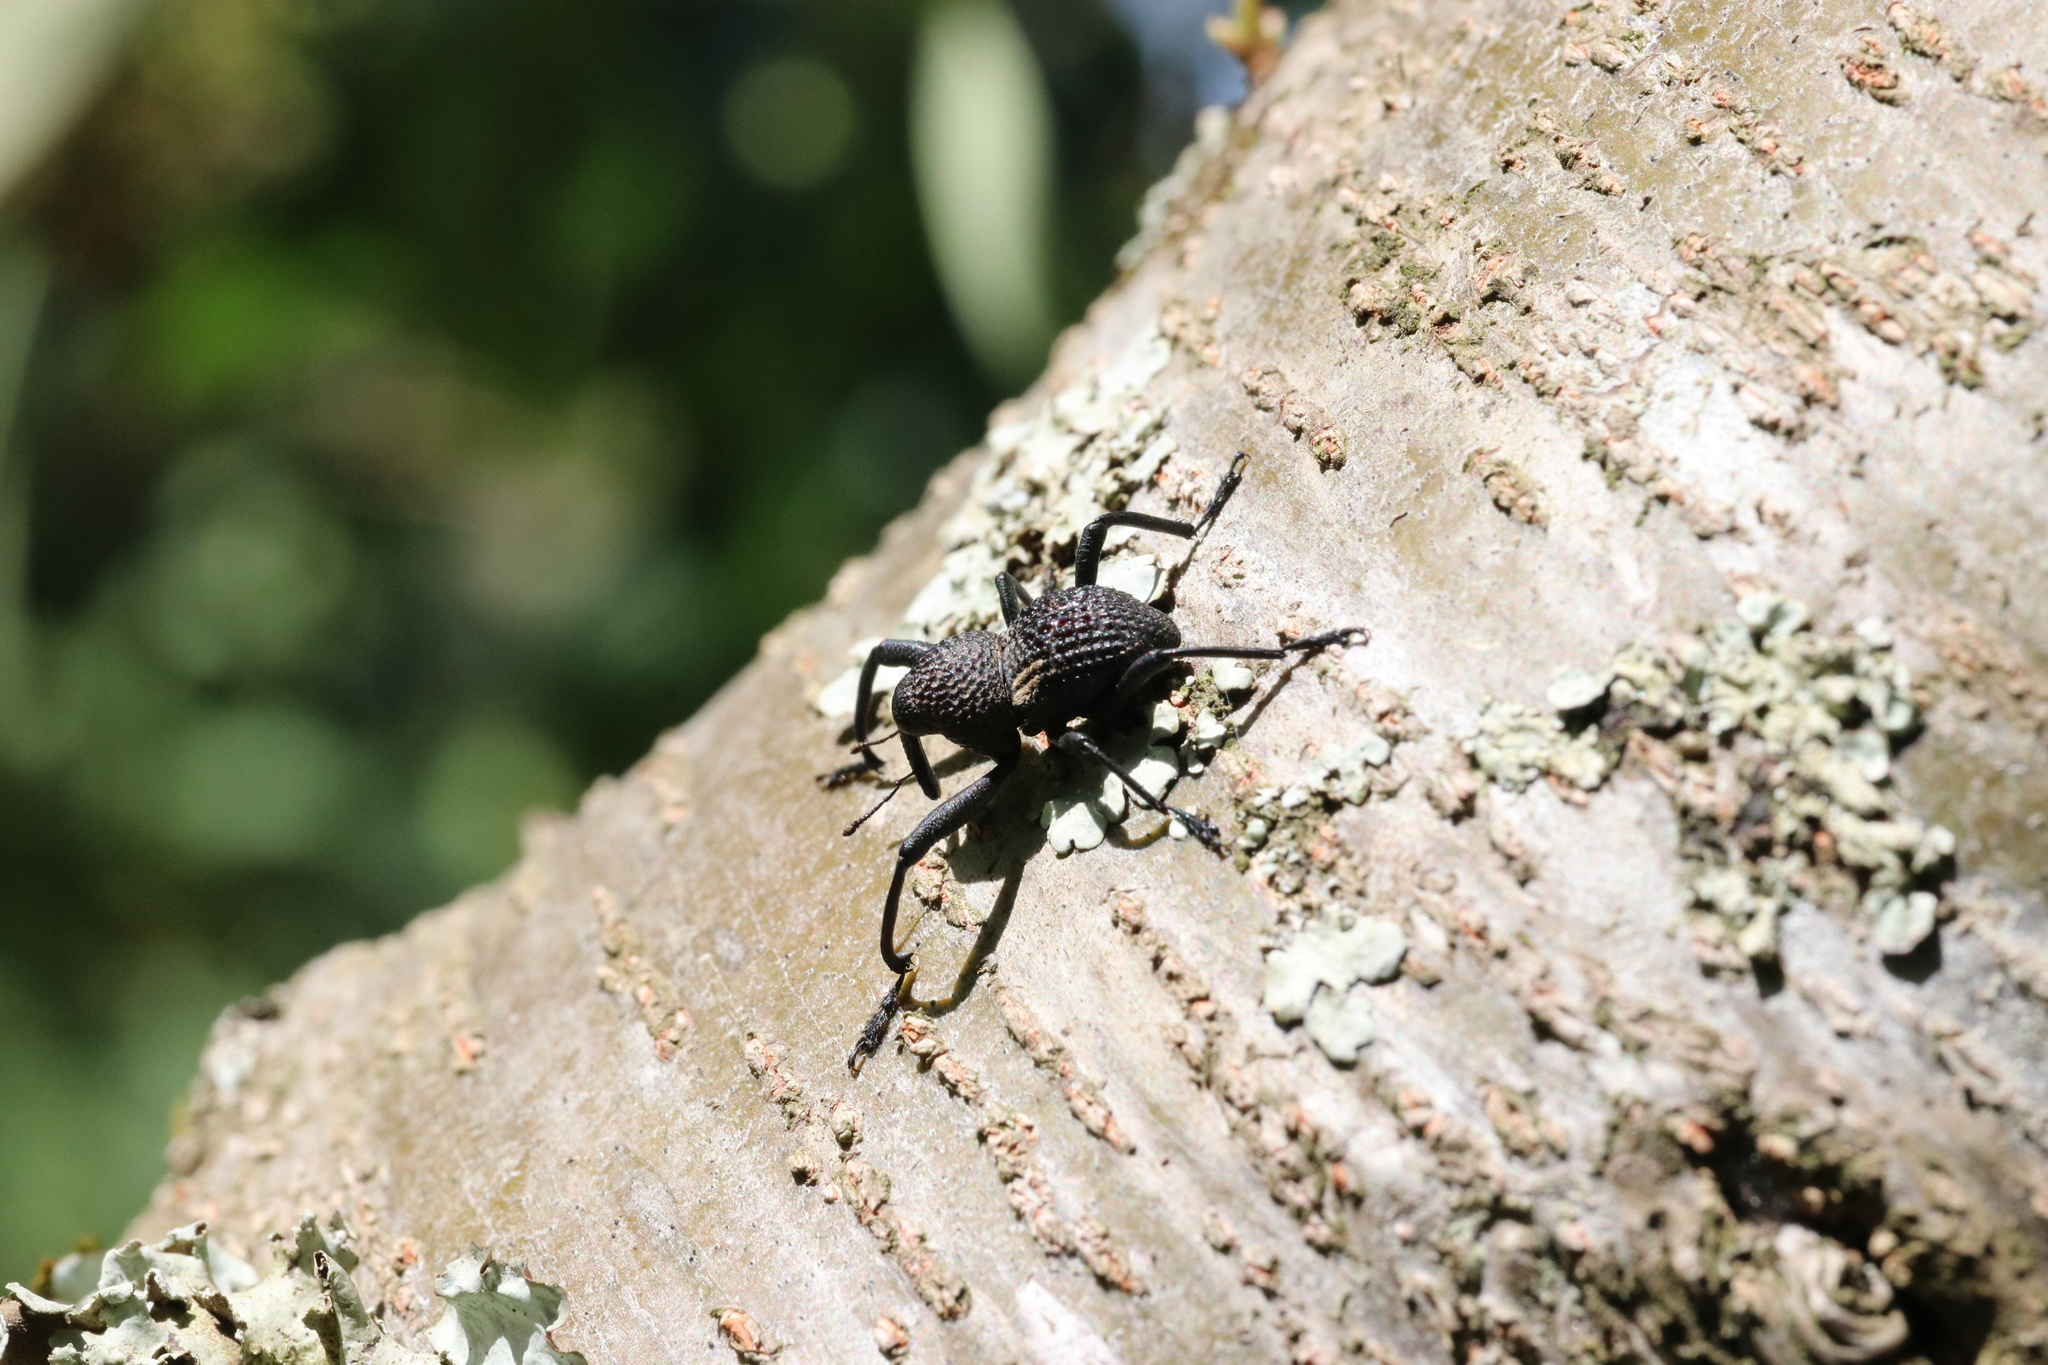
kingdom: Animalia
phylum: Arthropoda
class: Insecta
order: Coleoptera
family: Curculionidae
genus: Rhyephenes
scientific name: Rhyephenes humeralis
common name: Araè±ita chilena del pino
